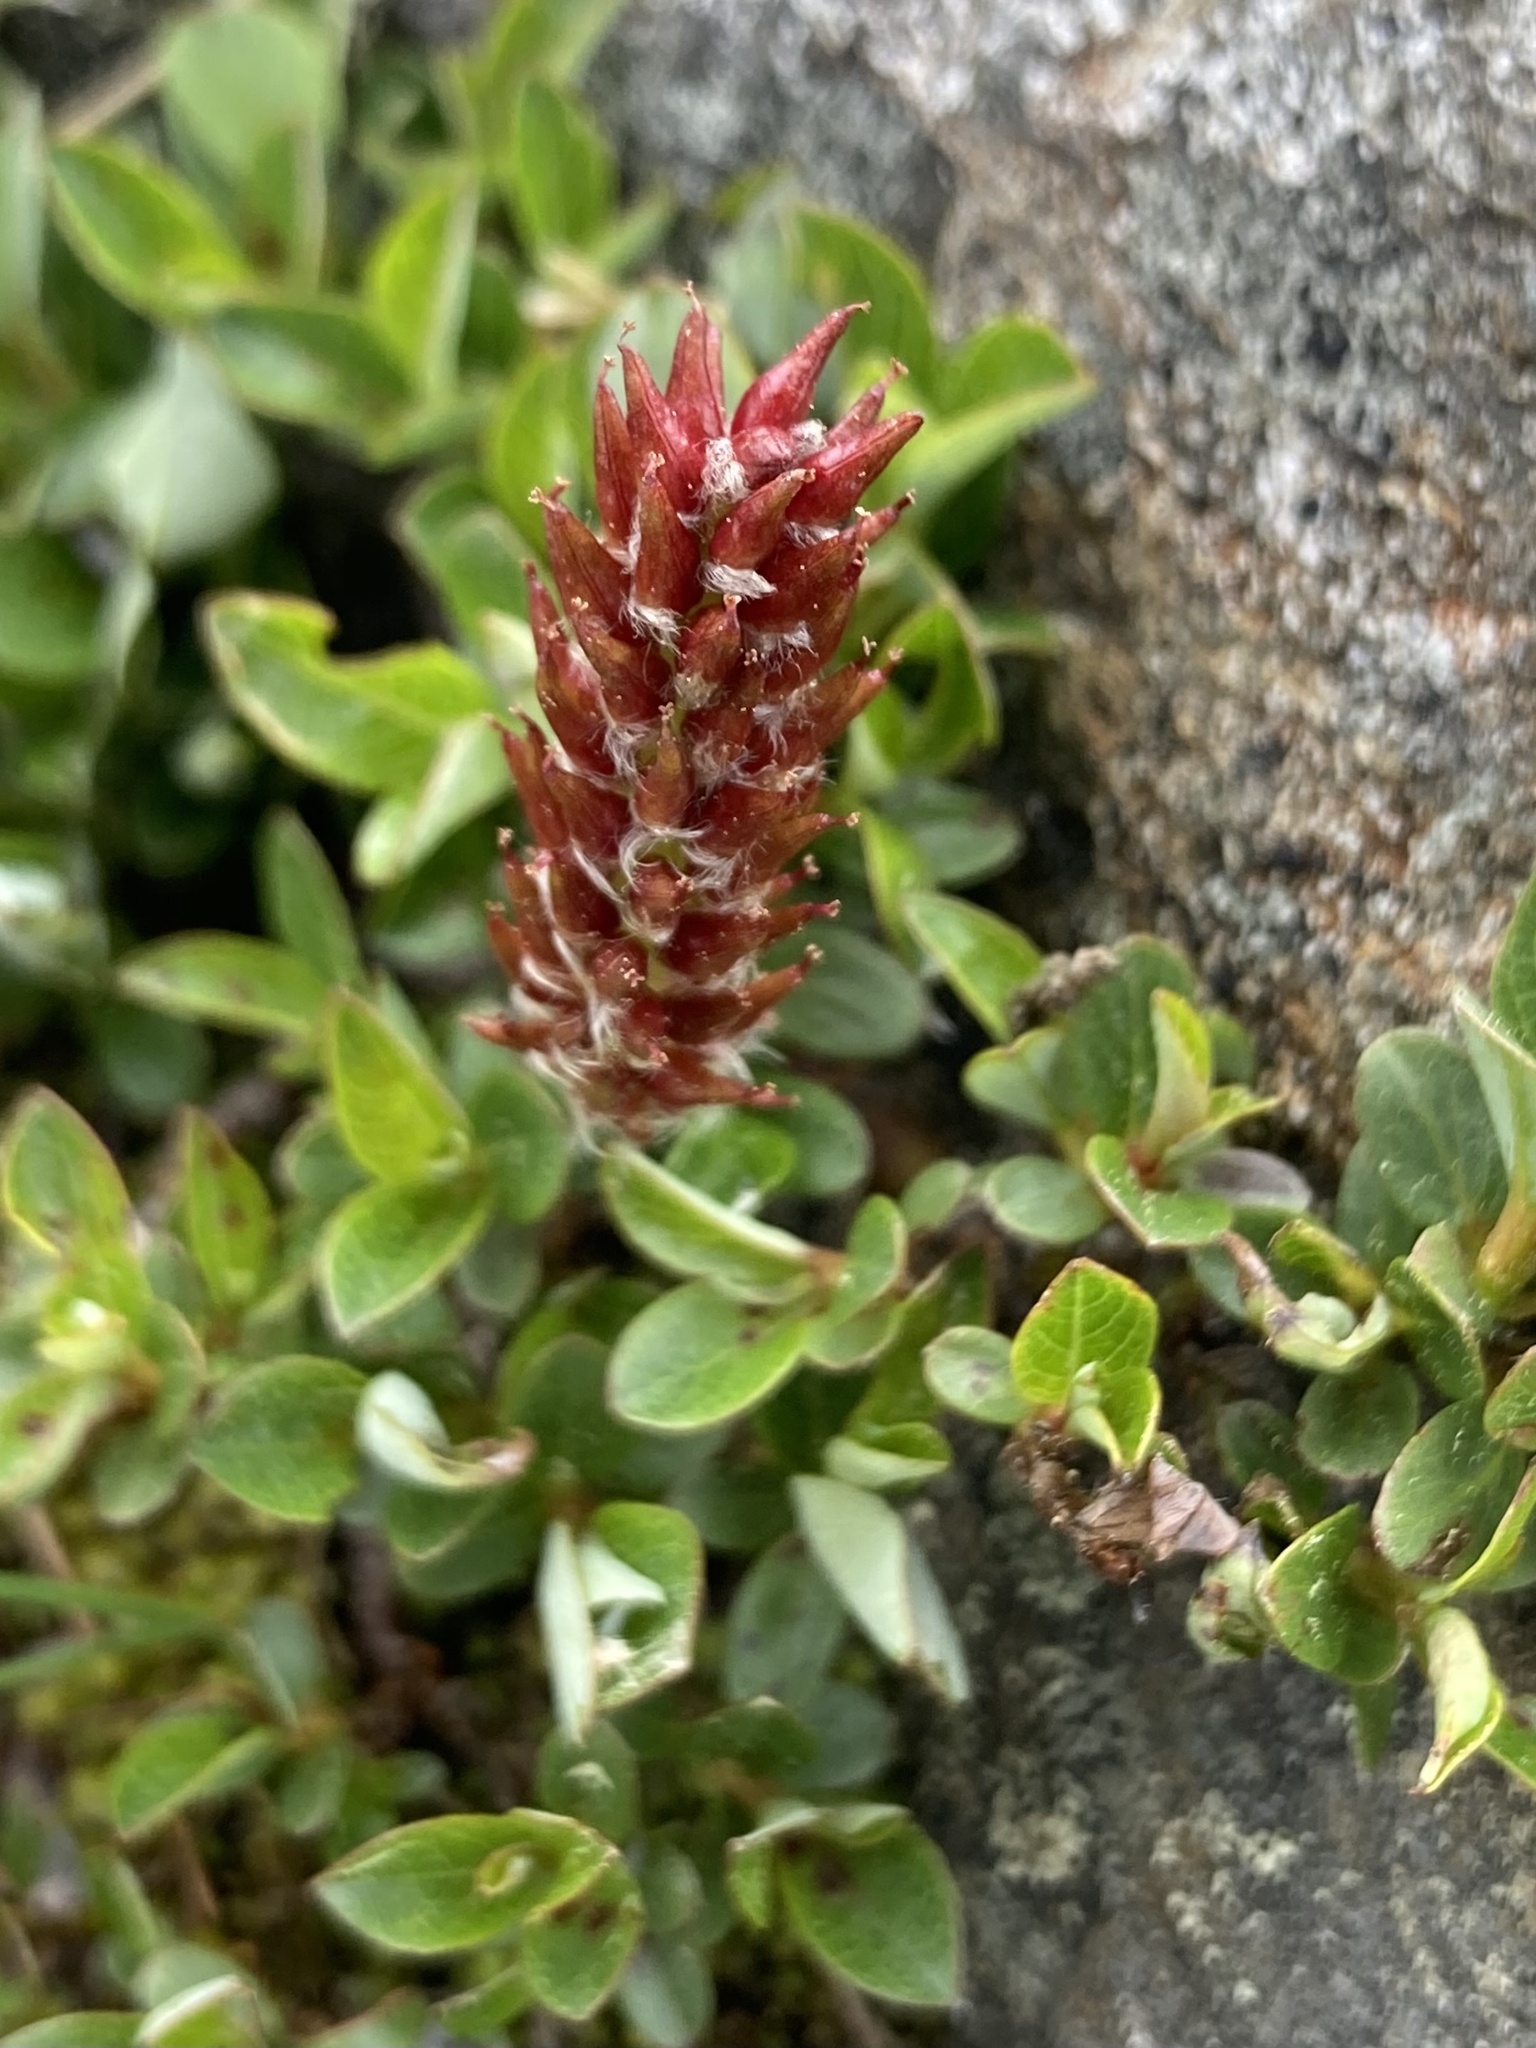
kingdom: Plantae
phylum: Tracheophyta
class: Magnoliopsida
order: Malpighiales
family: Salicaceae
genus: Salix
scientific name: Salix uva-ursi
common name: Bearberry willow
